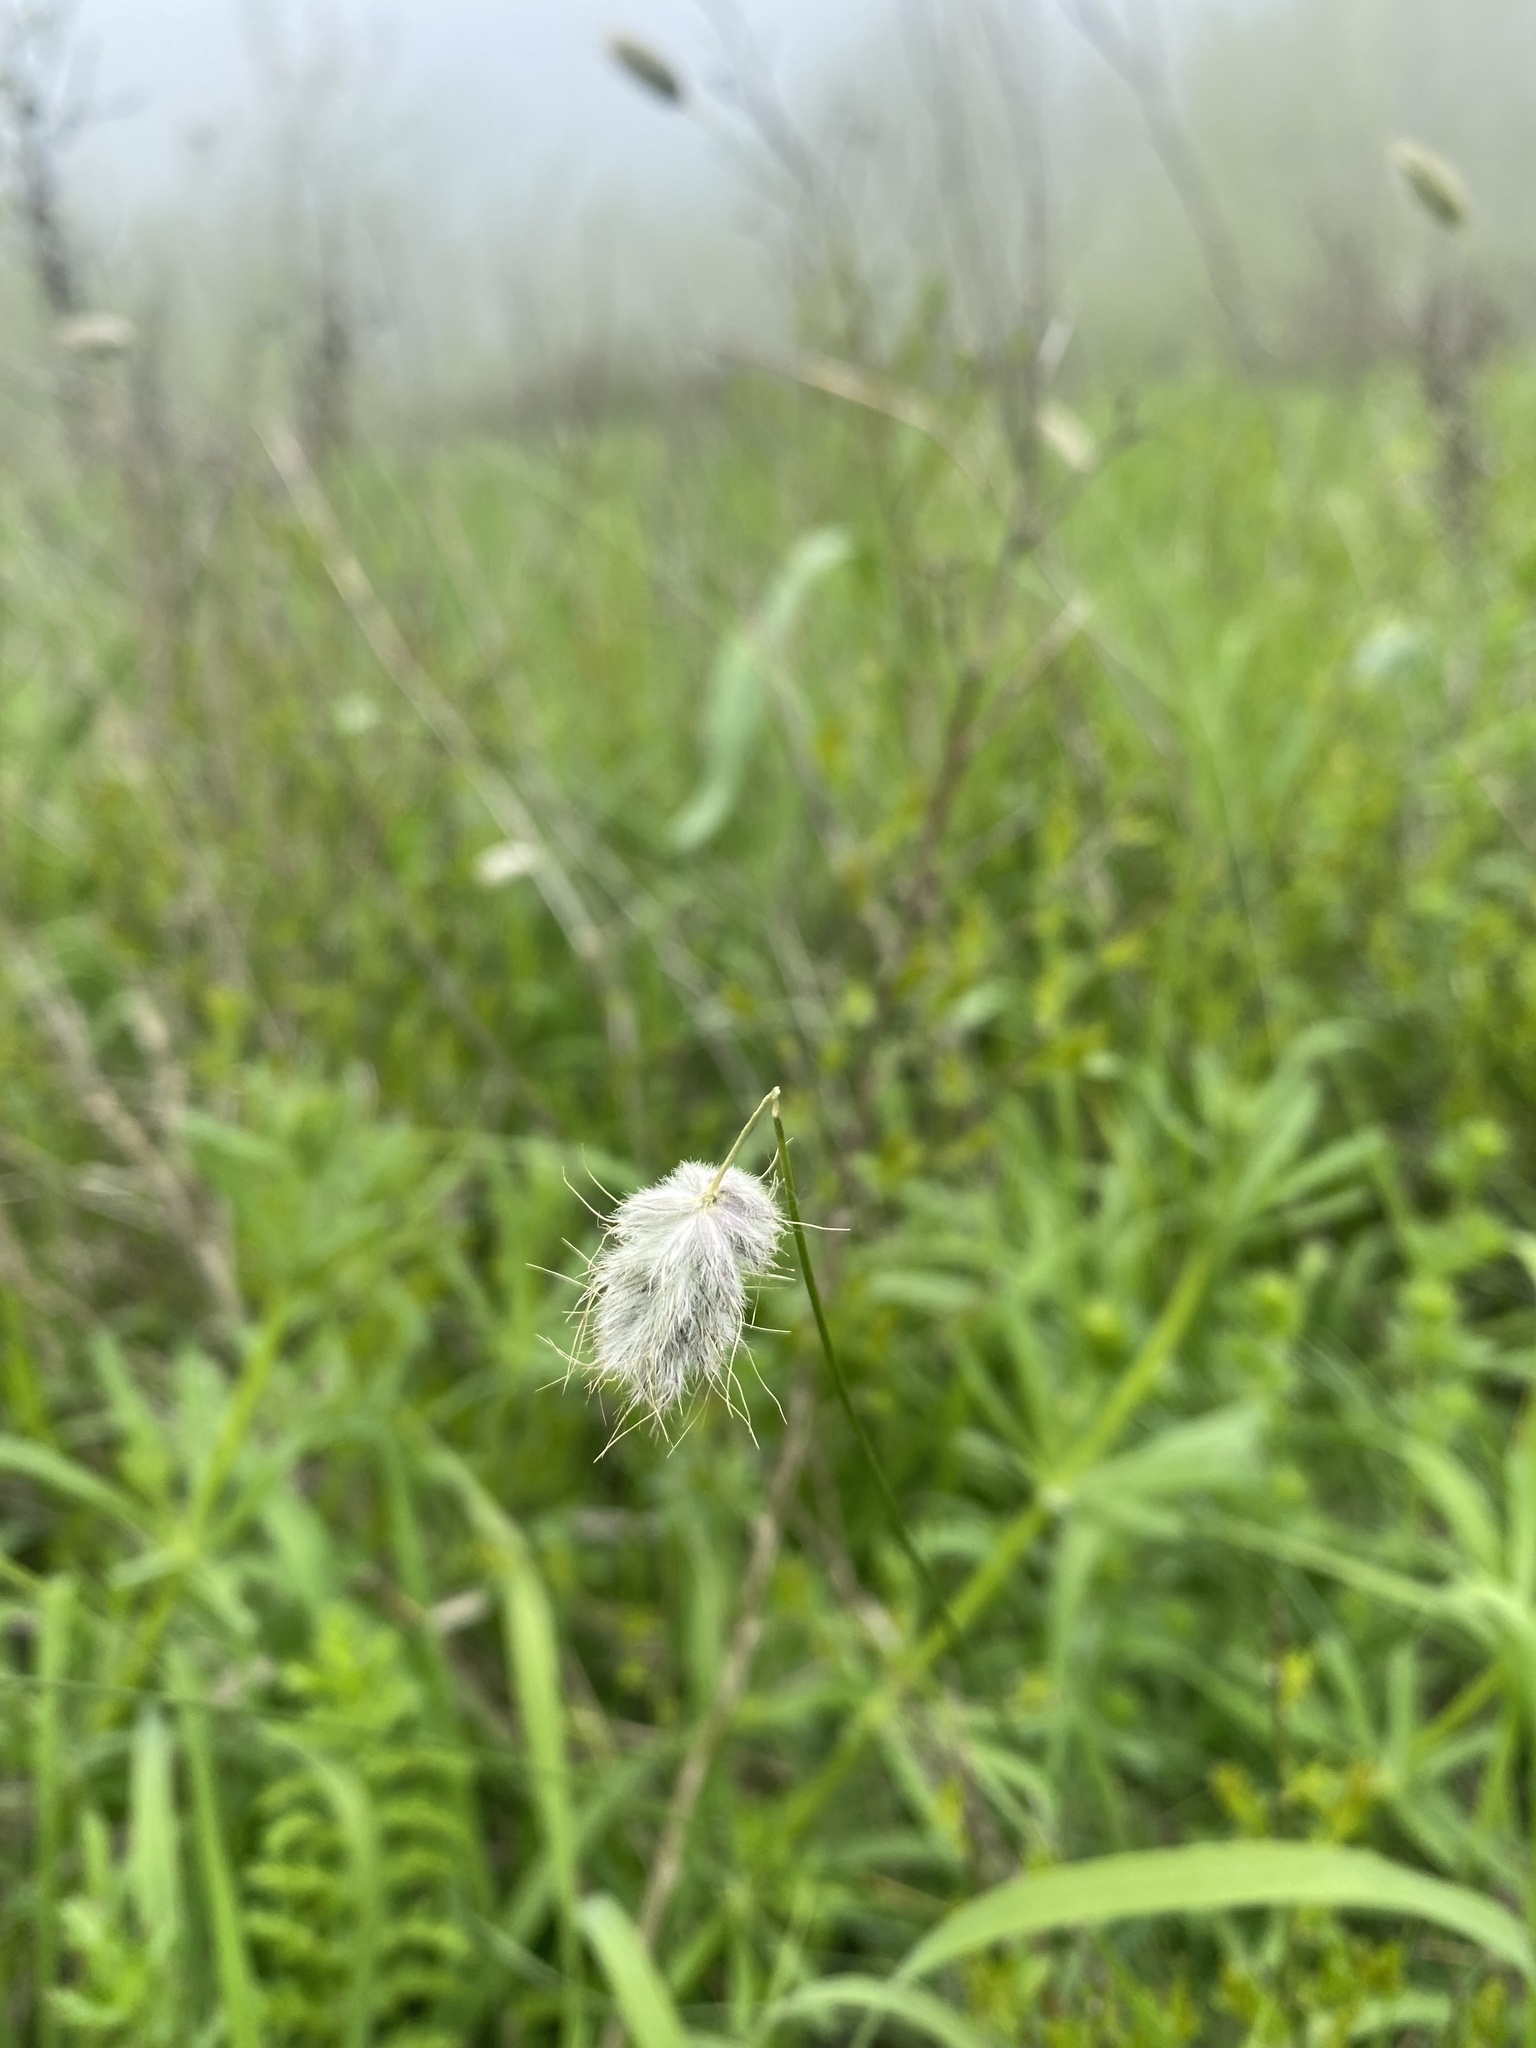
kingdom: Plantae
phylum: Tracheophyta
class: Liliopsida
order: Poales
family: Poaceae
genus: Alopecurus
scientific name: Alopecurus vaginatus
